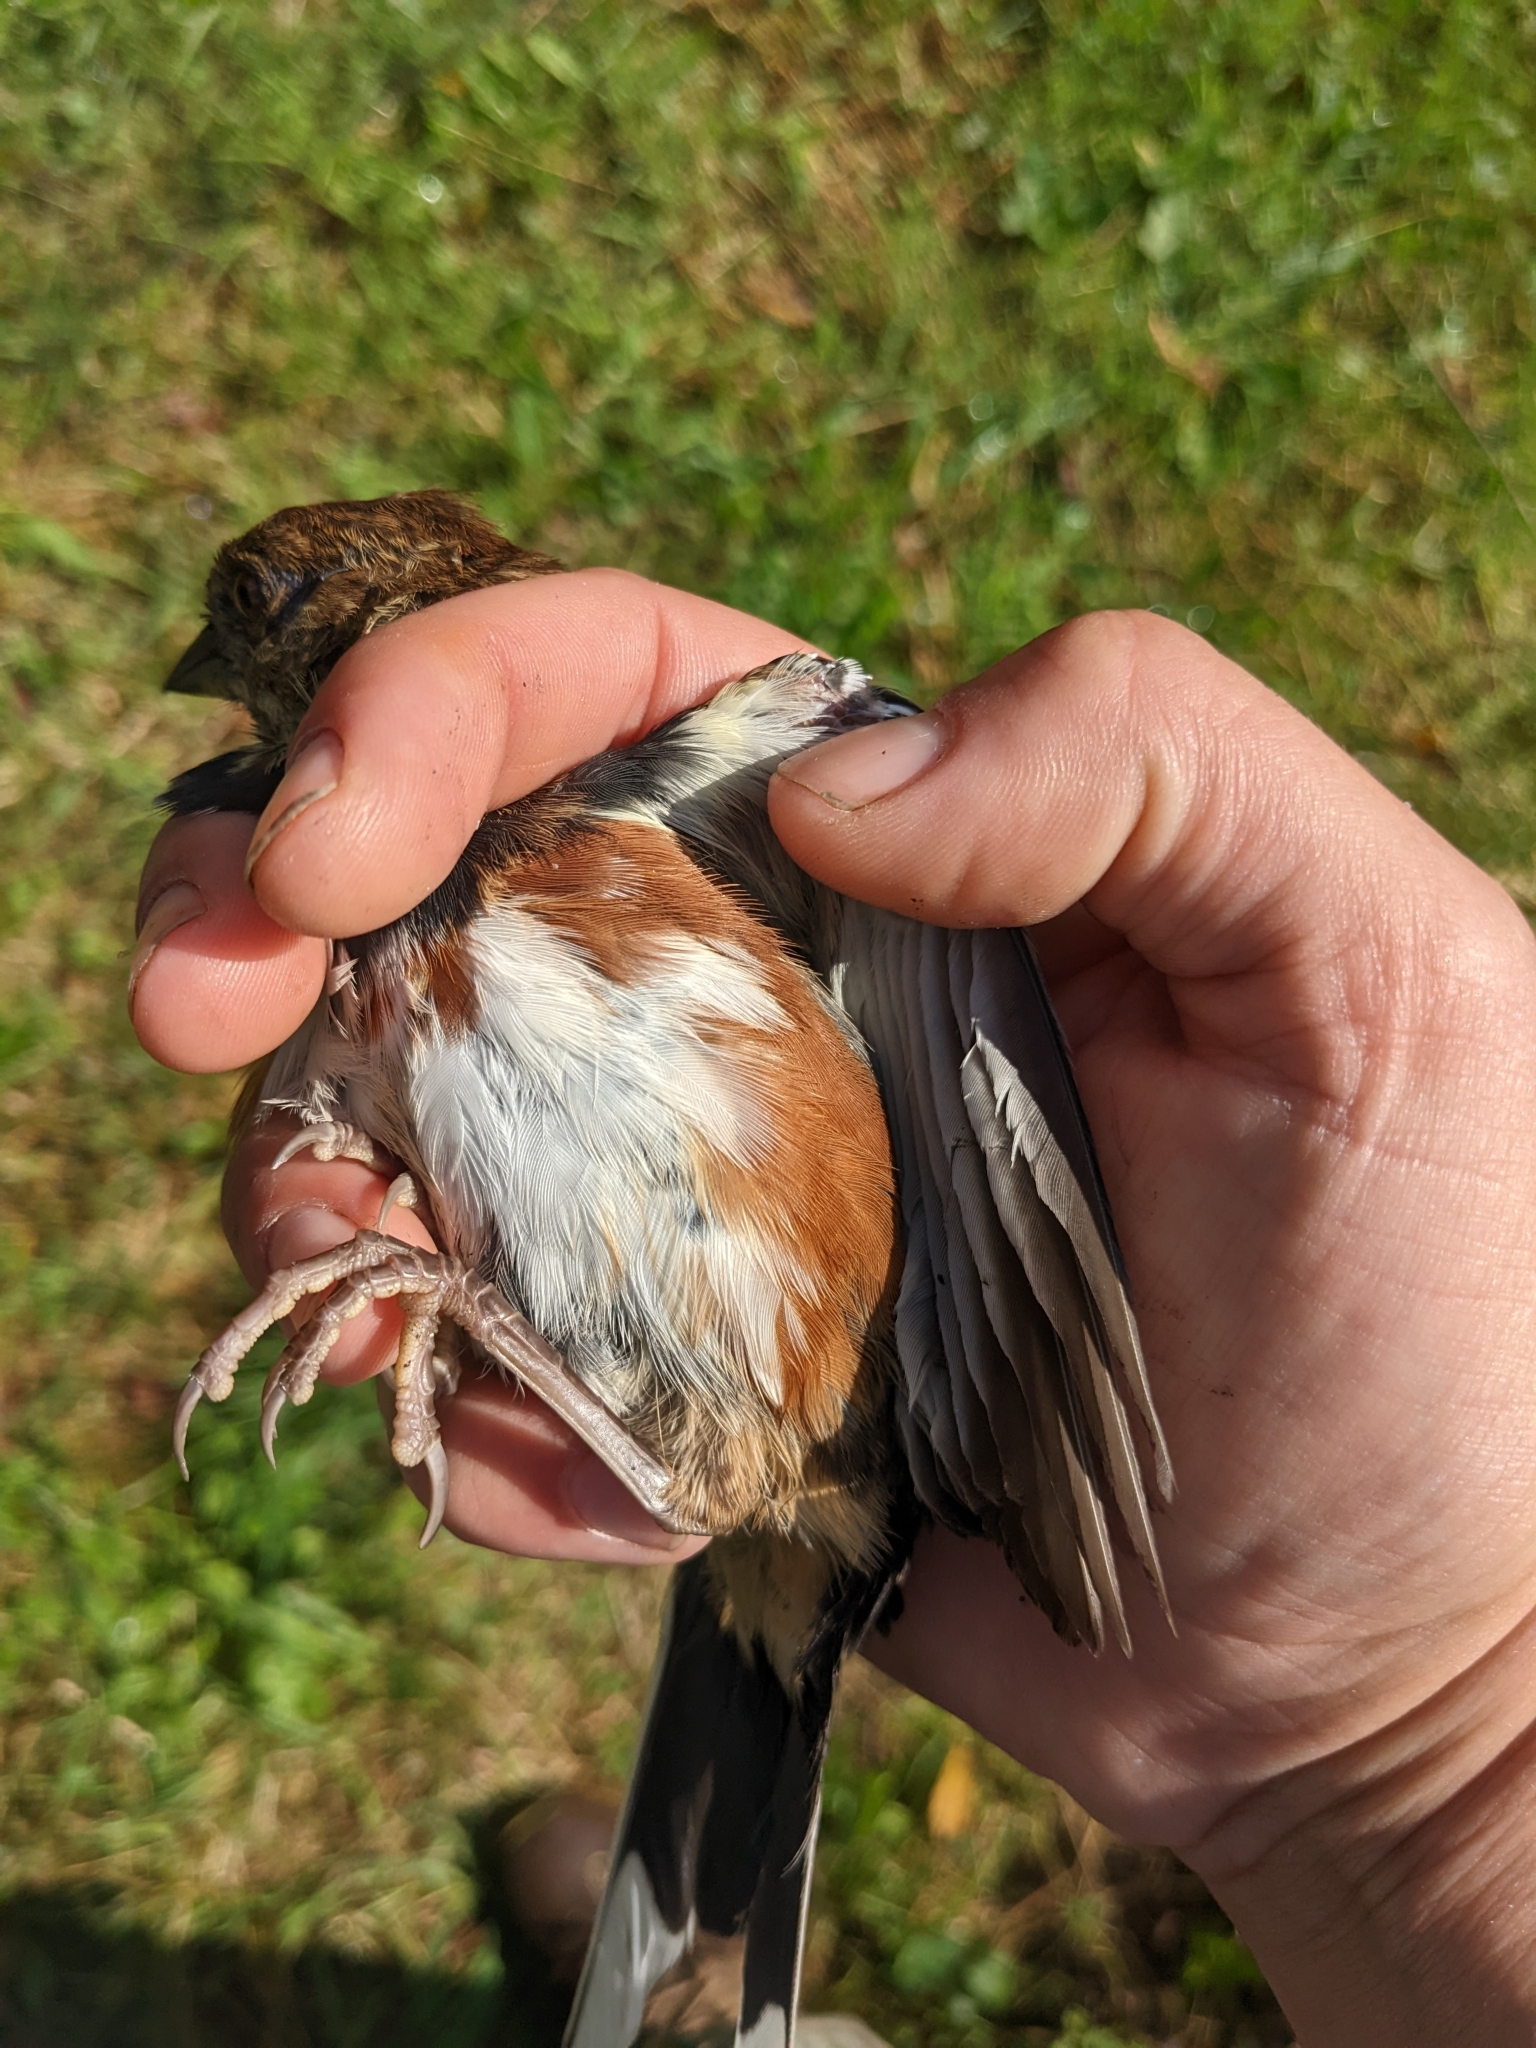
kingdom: Animalia
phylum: Chordata
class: Aves
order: Passeriformes
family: Passerellidae
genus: Pipilo
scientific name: Pipilo erythrophthalmus
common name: Eastern towhee
